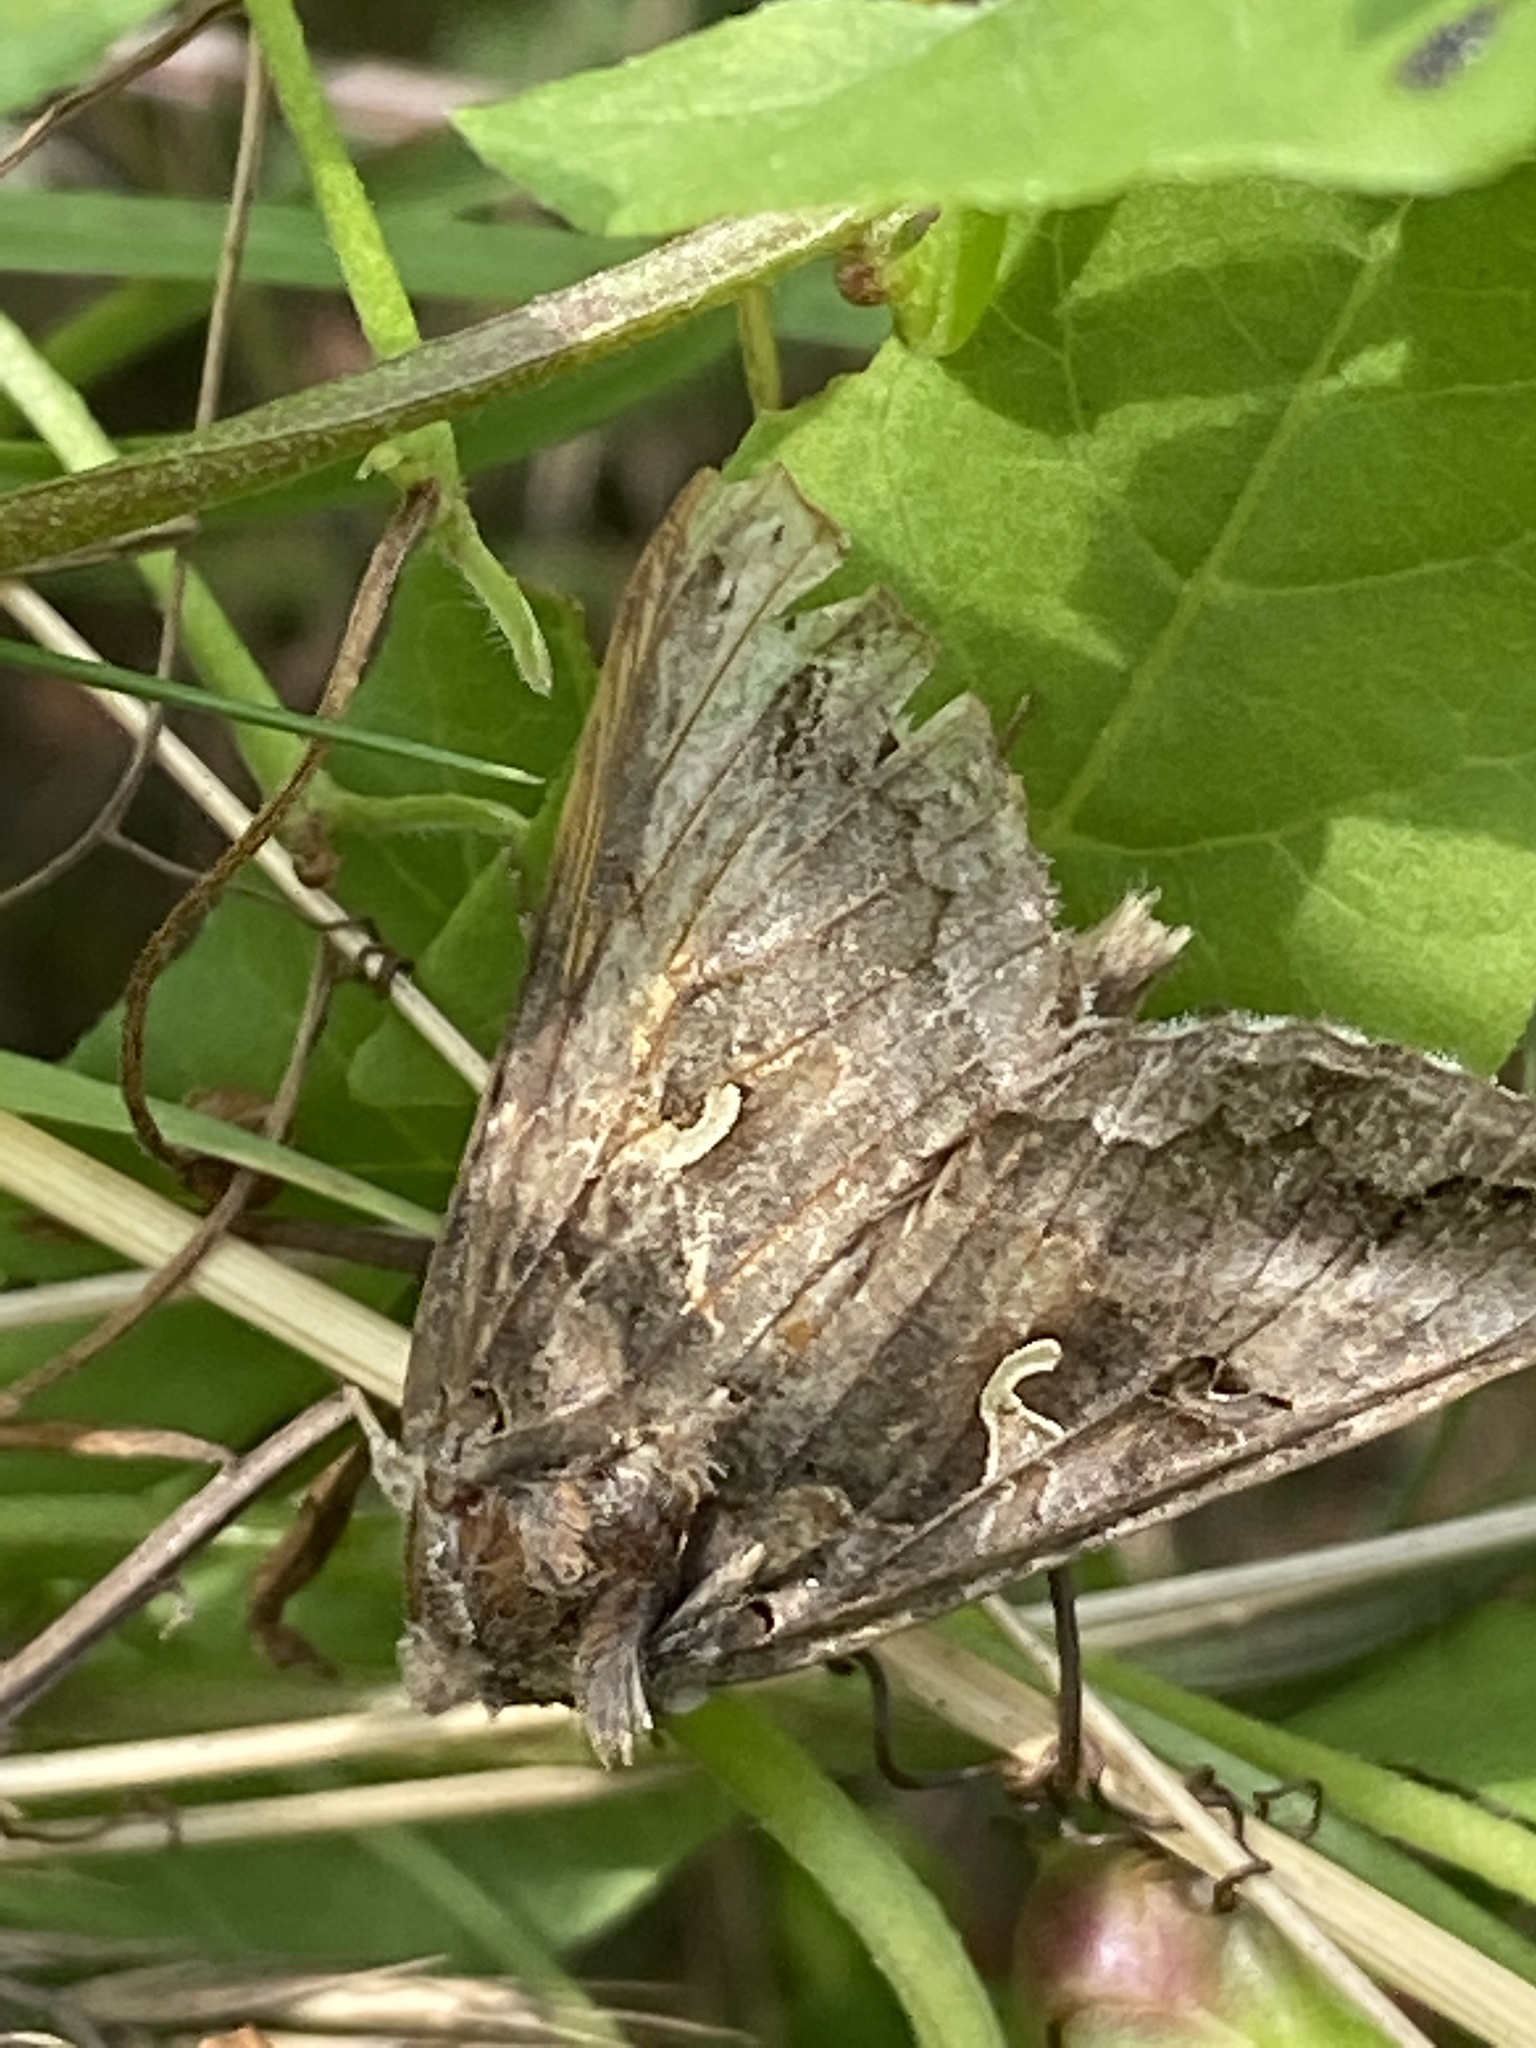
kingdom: Animalia
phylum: Arthropoda
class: Insecta
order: Lepidoptera
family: Noctuidae
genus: Autographa
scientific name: Autographa gamma
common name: Silver y
